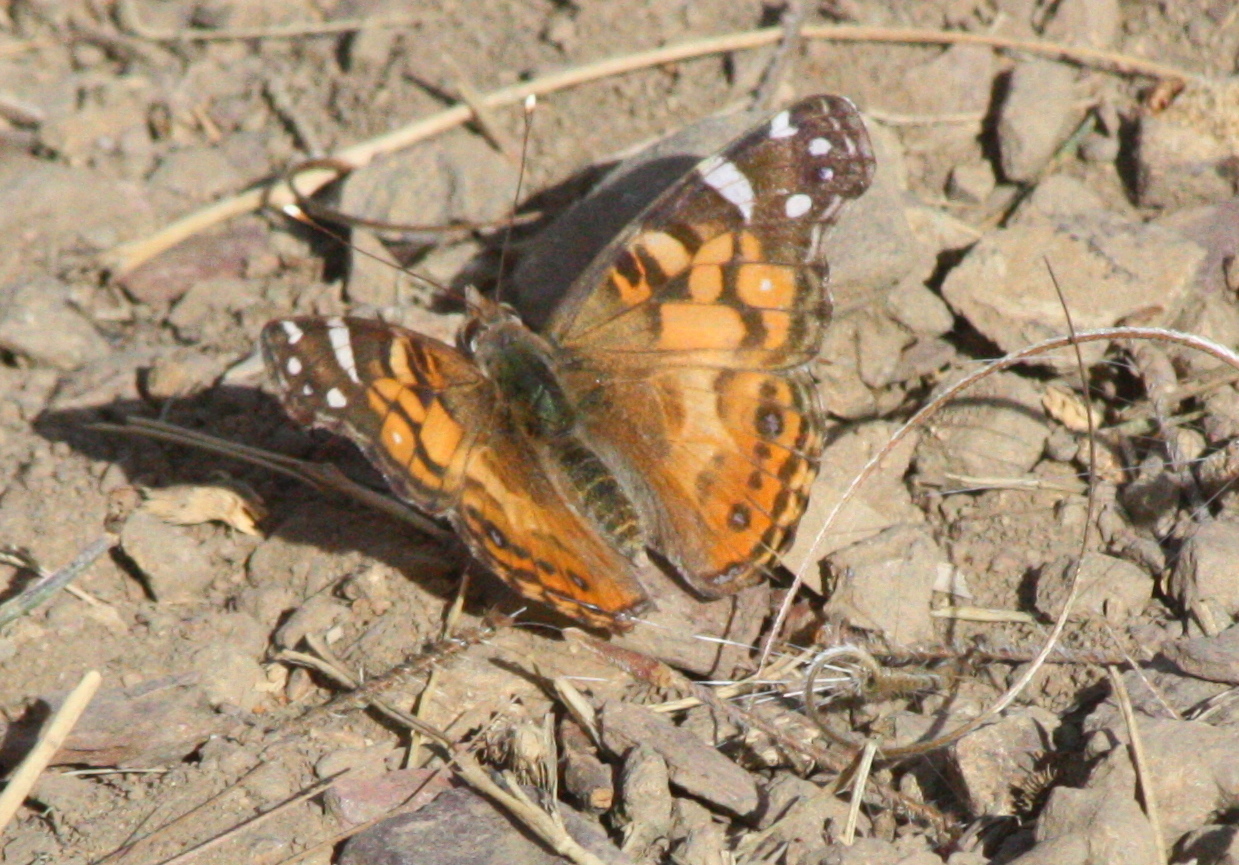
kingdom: Animalia
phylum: Arthropoda
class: Insecta
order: Lepidoptera
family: Nymphalidae
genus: Vanessa
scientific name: Vanessa virginiensis
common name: American lady
